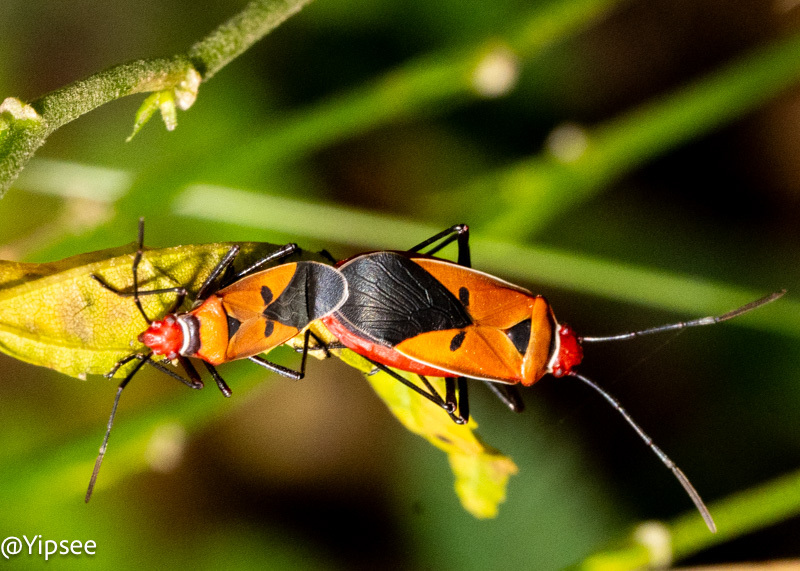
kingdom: Animalia
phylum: Arthropoda
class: Insecta
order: Hemiptera
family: Pyrrhocoridae
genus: Dysdercus
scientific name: Dysdercus poecilus
